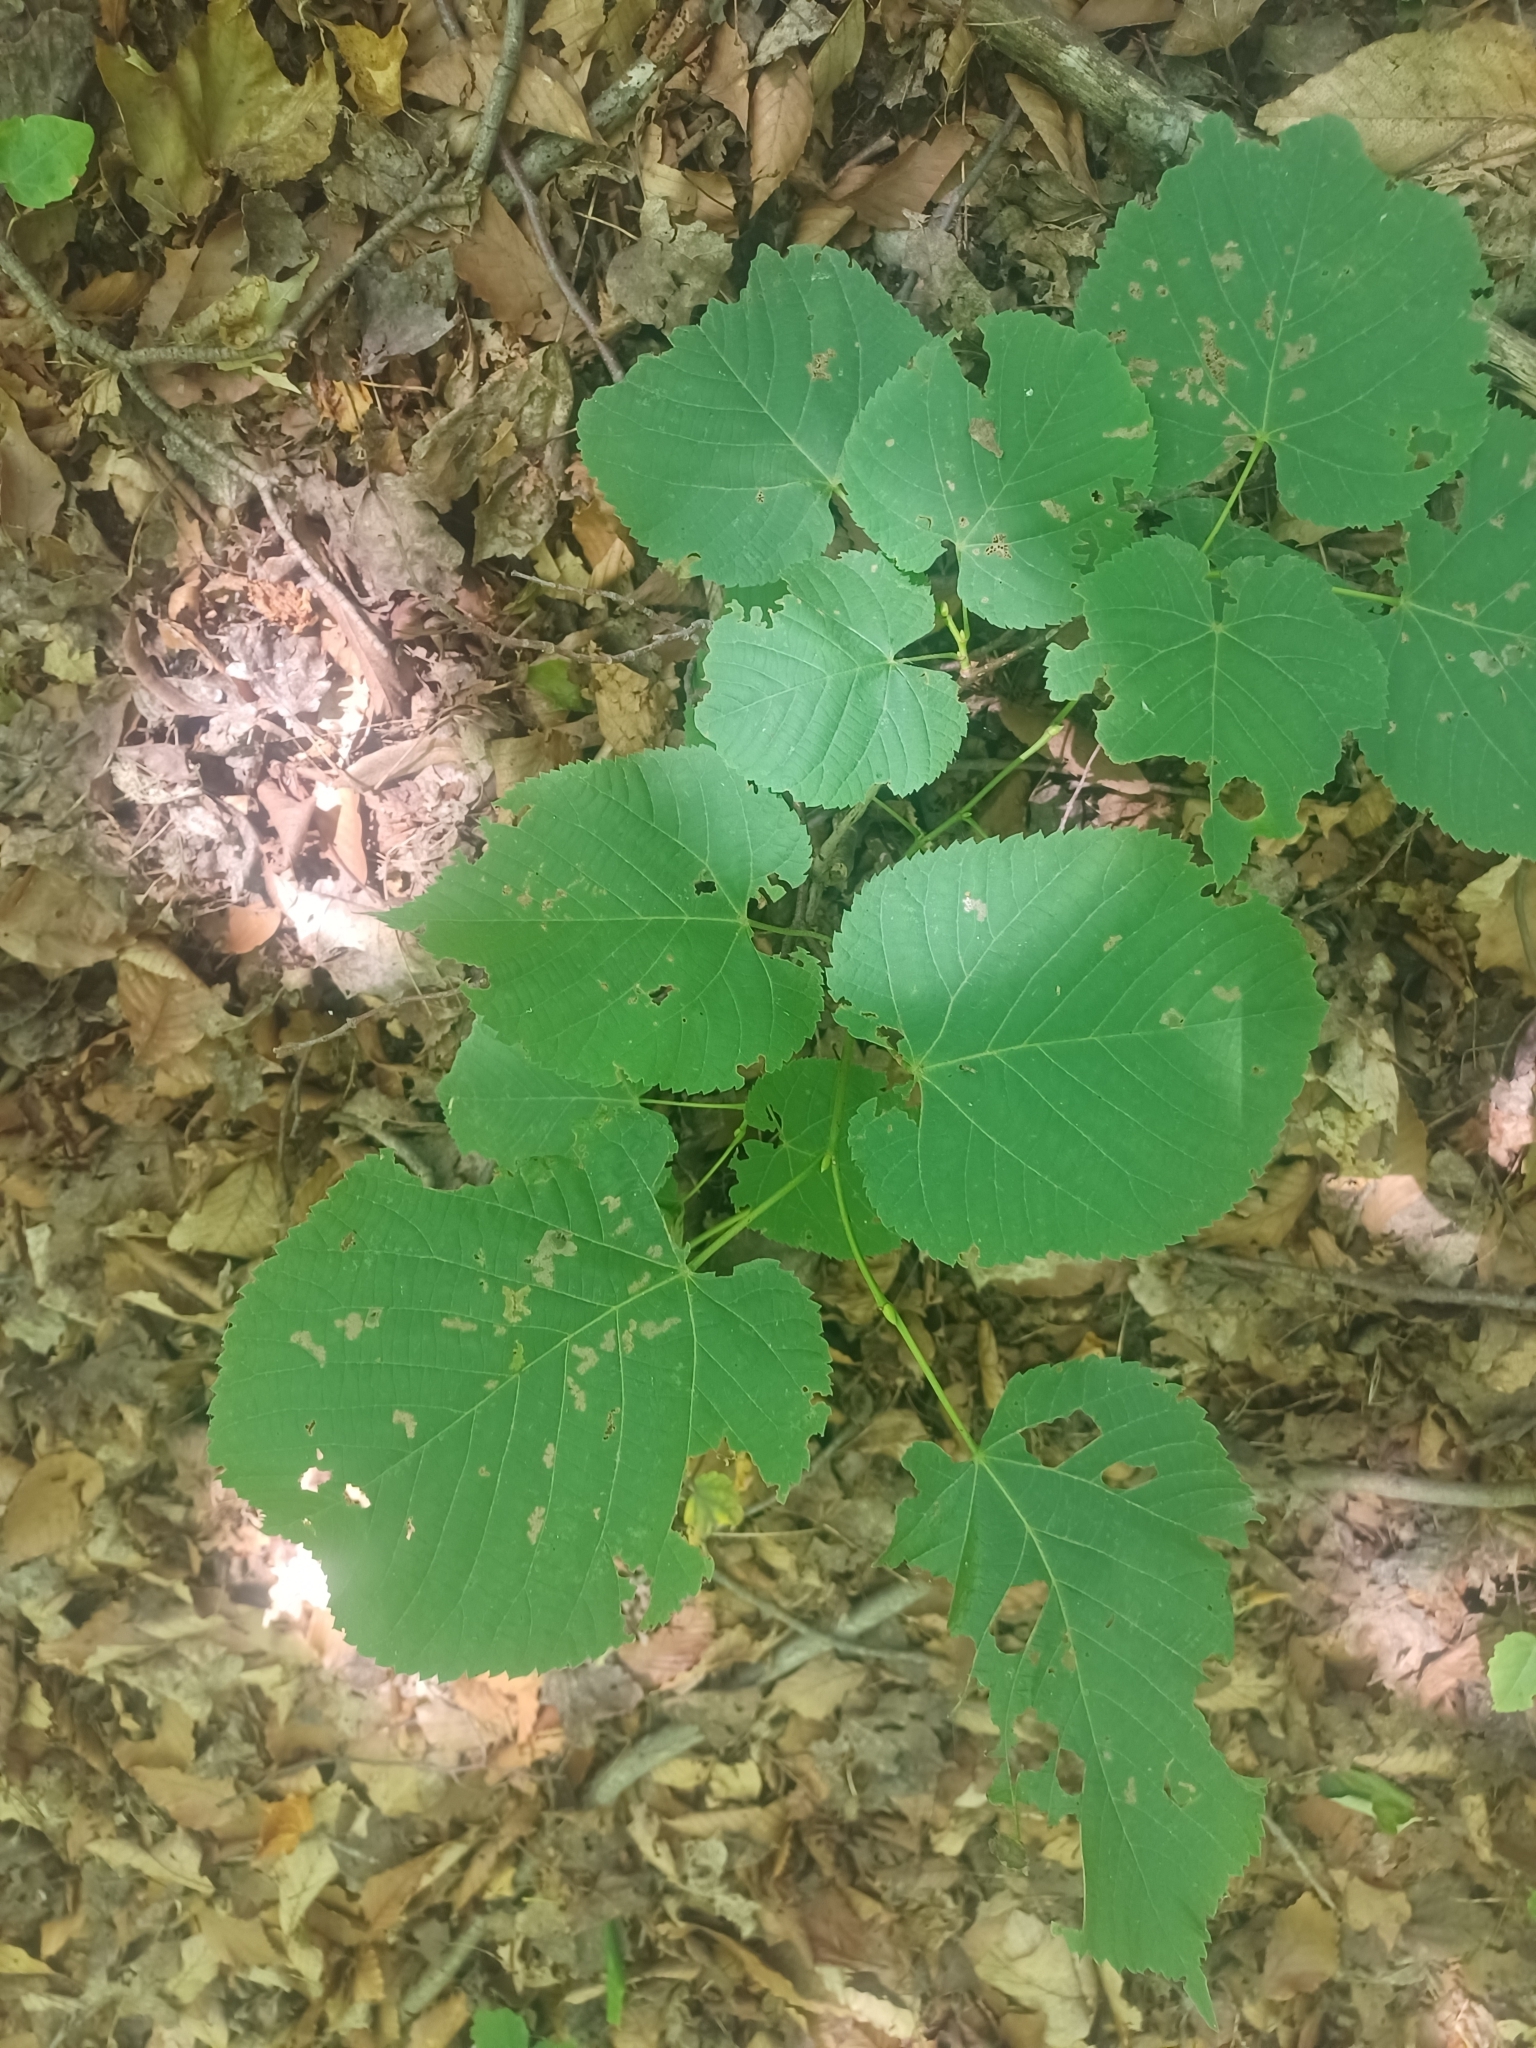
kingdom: Plantae
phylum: Tracheophyta
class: Magnoliopsida
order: Malvales
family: Malvaceae
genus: Tilia
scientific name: Tilia americana
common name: Basswood
